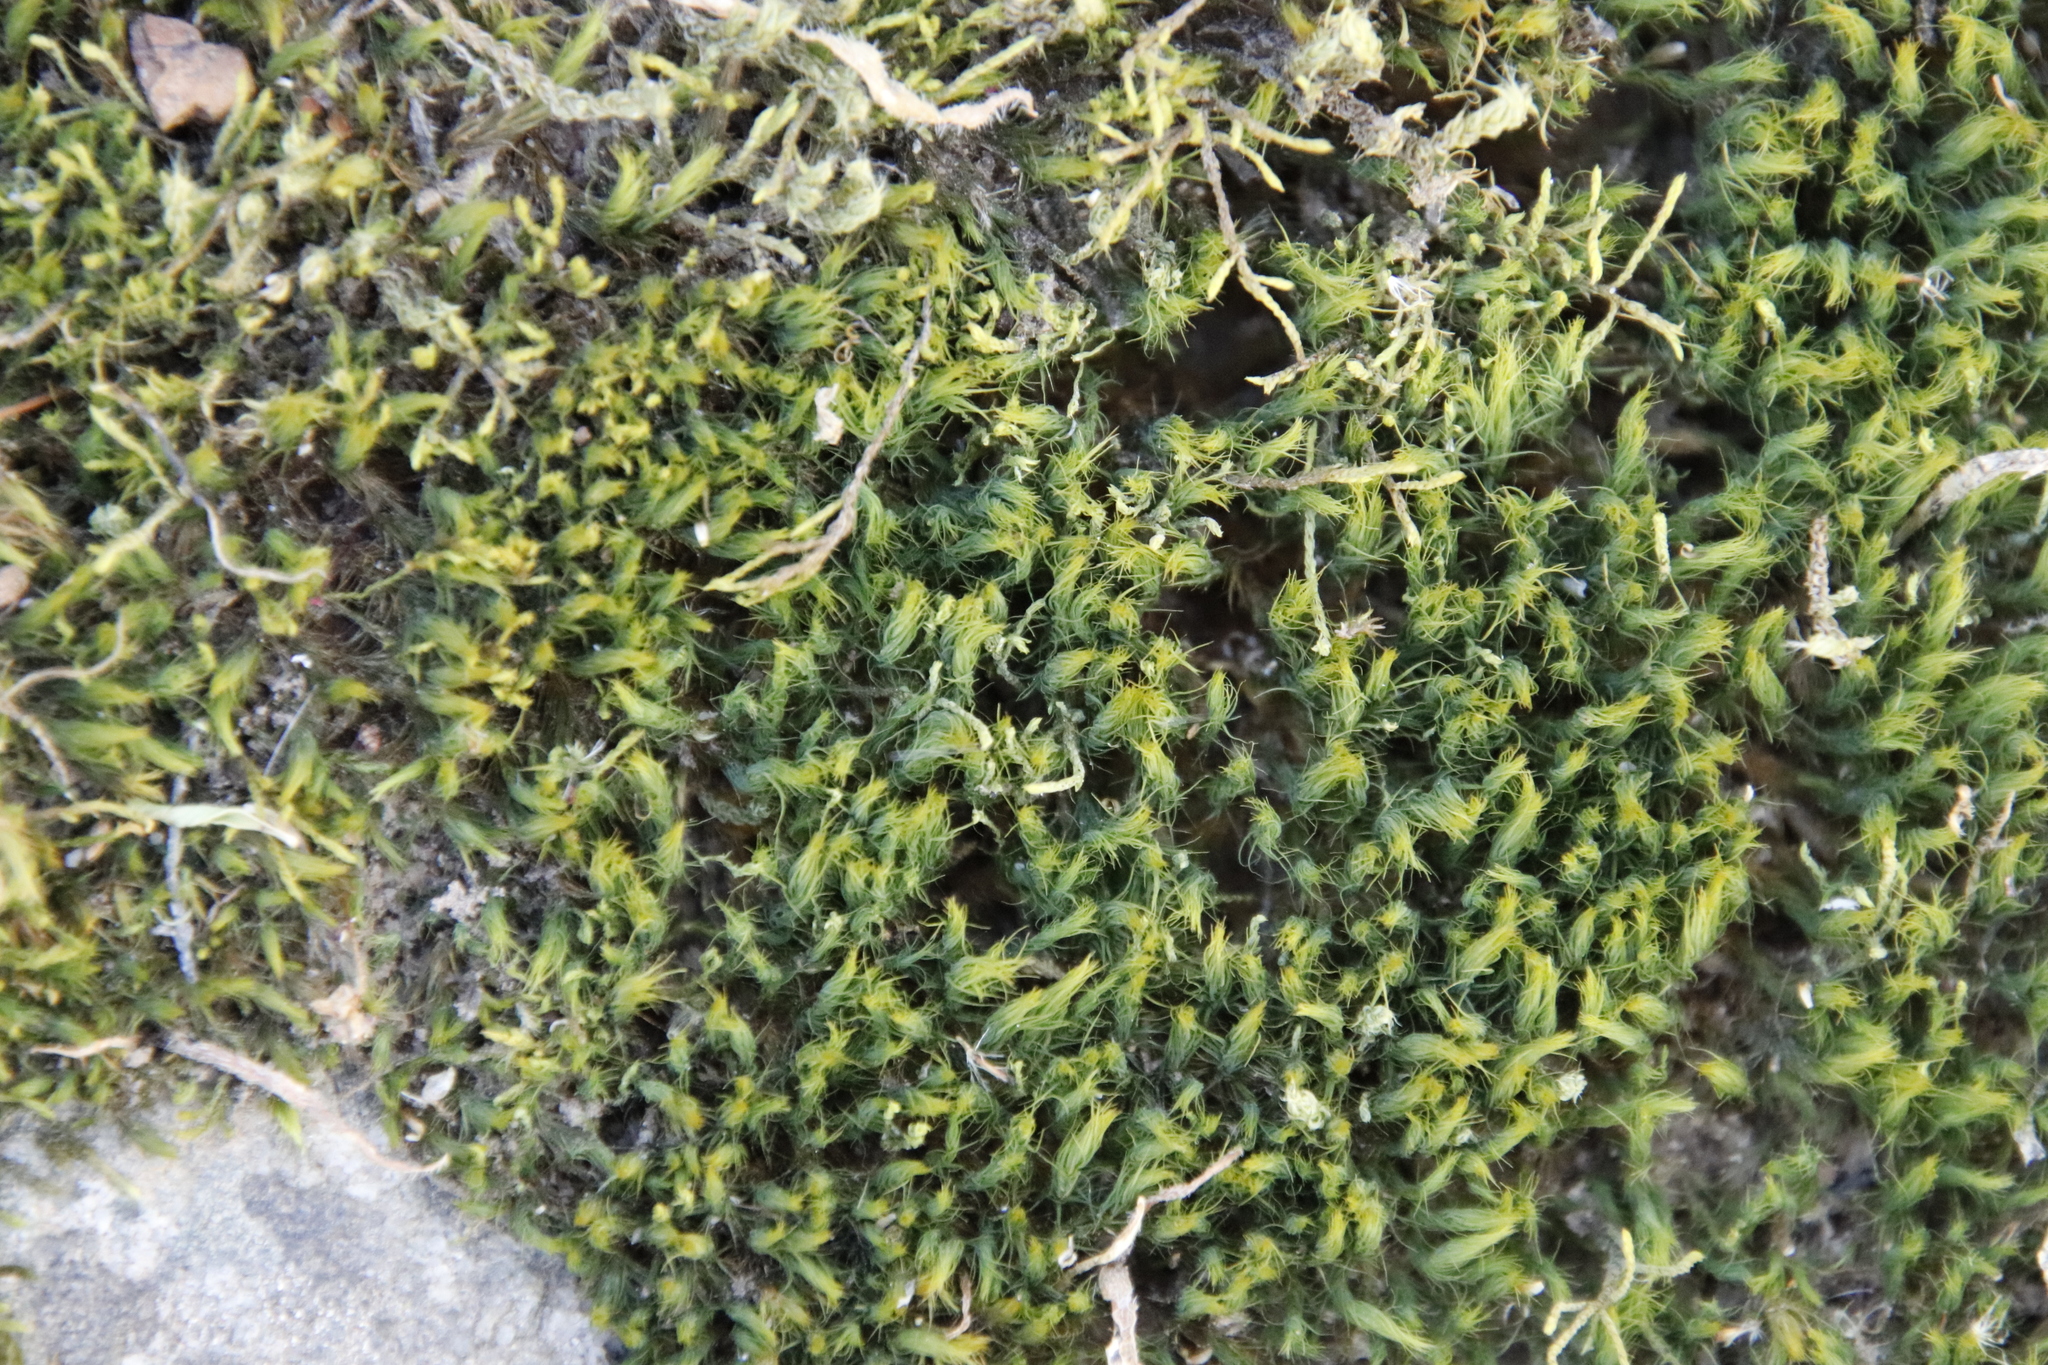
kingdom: Plantae
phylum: Bryophyta
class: Bryopsida
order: Bartramiales
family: Bartramiaceae
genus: Anacolia
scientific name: Anacolia breutelii
